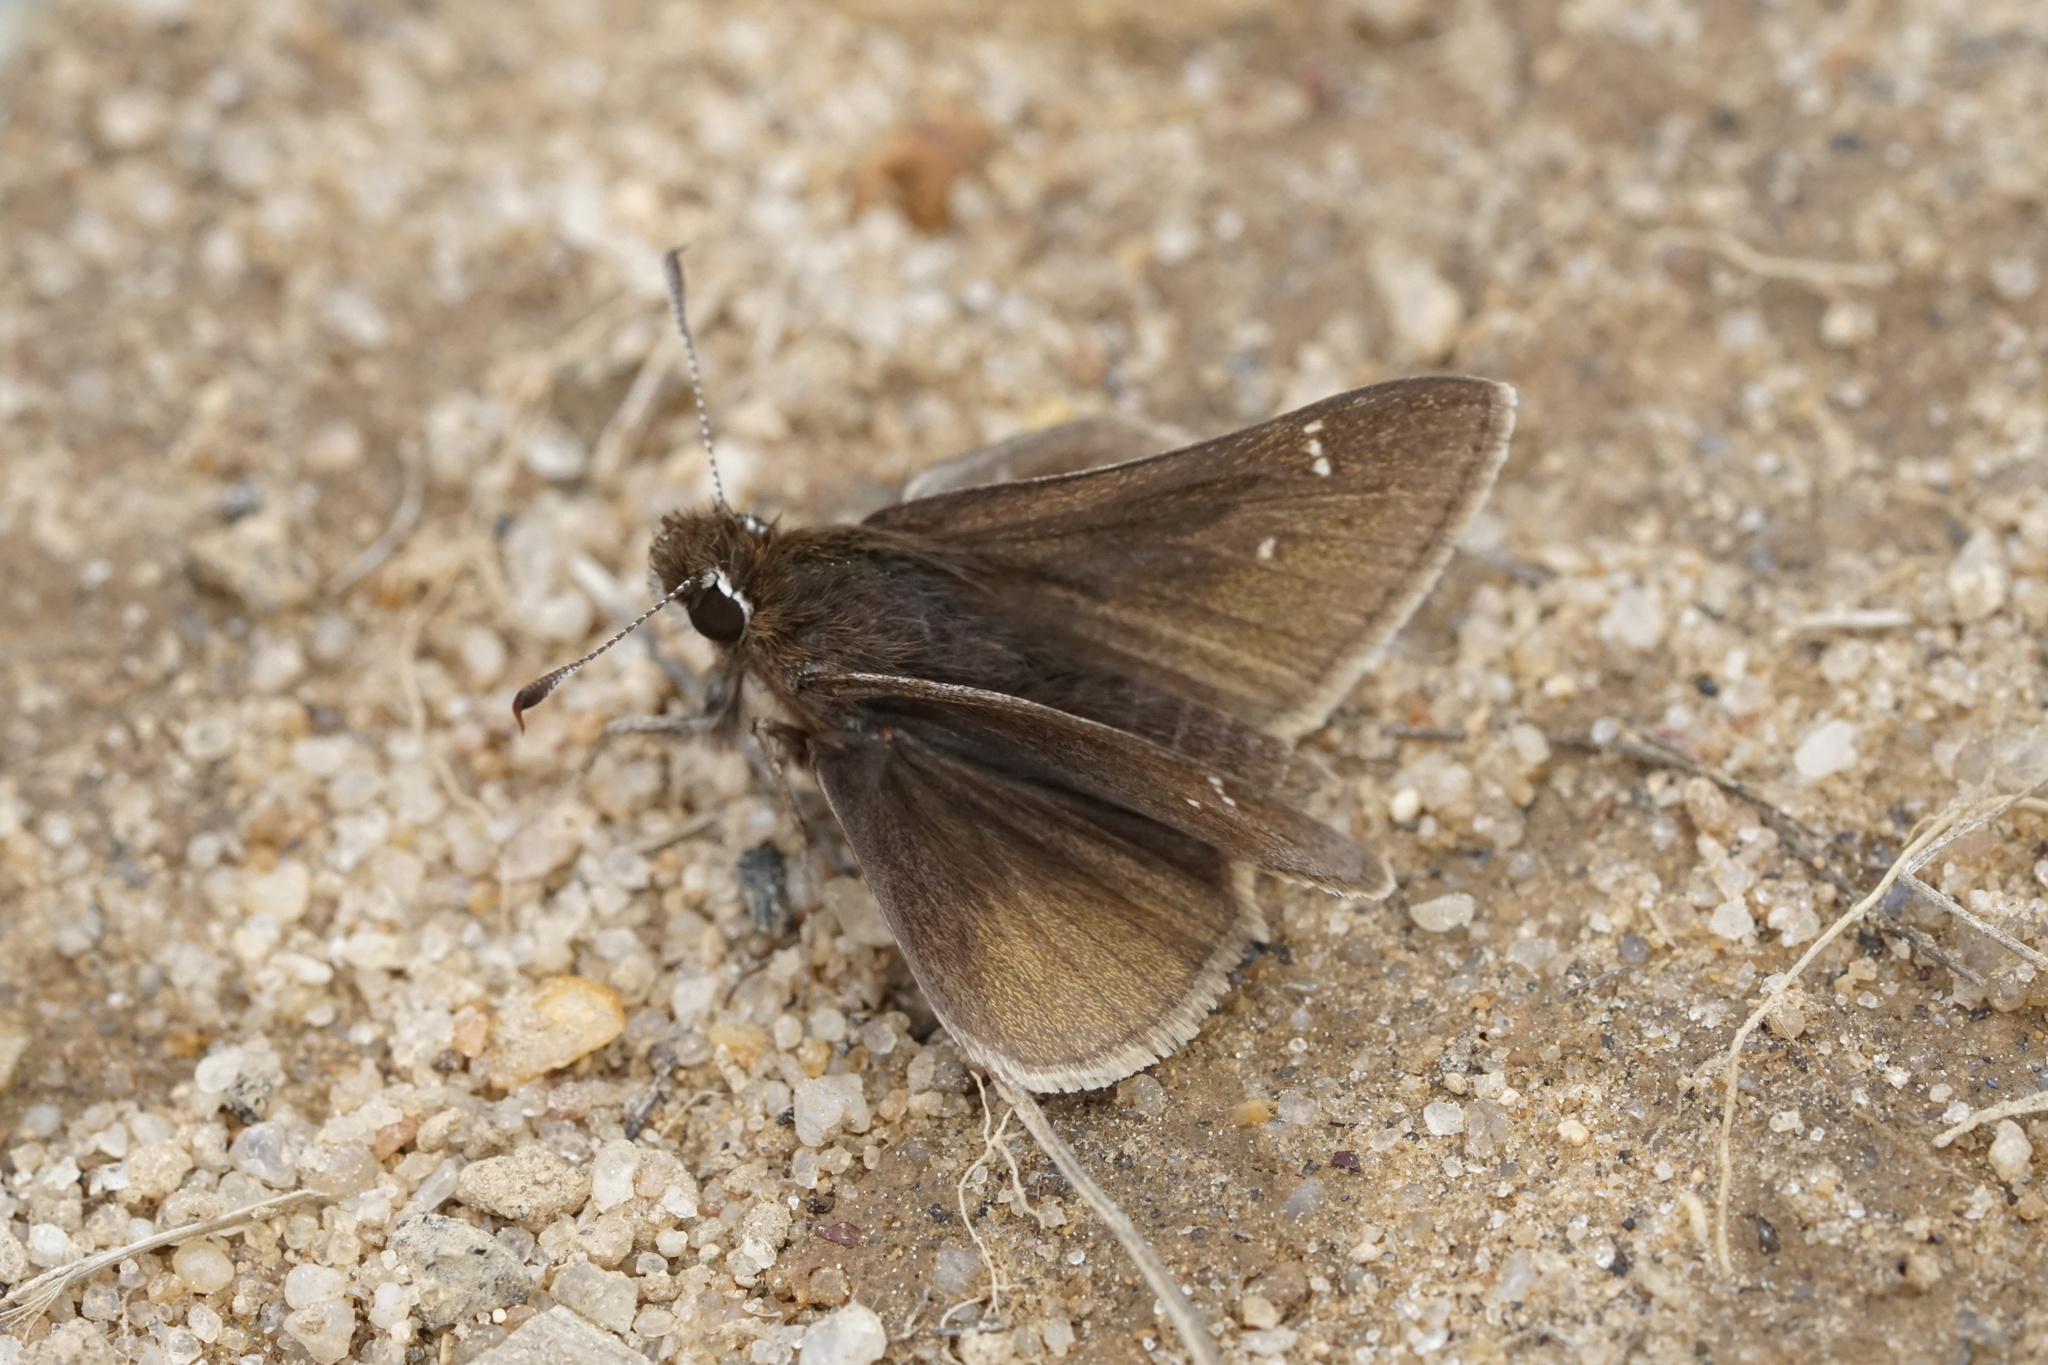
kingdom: Animalia
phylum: Arthropoda
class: Insecta
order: Lepidoptera
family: Hesperiidae
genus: Atrytonopsis
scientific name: Atrytonopsis hianna
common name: Dusted skipper
